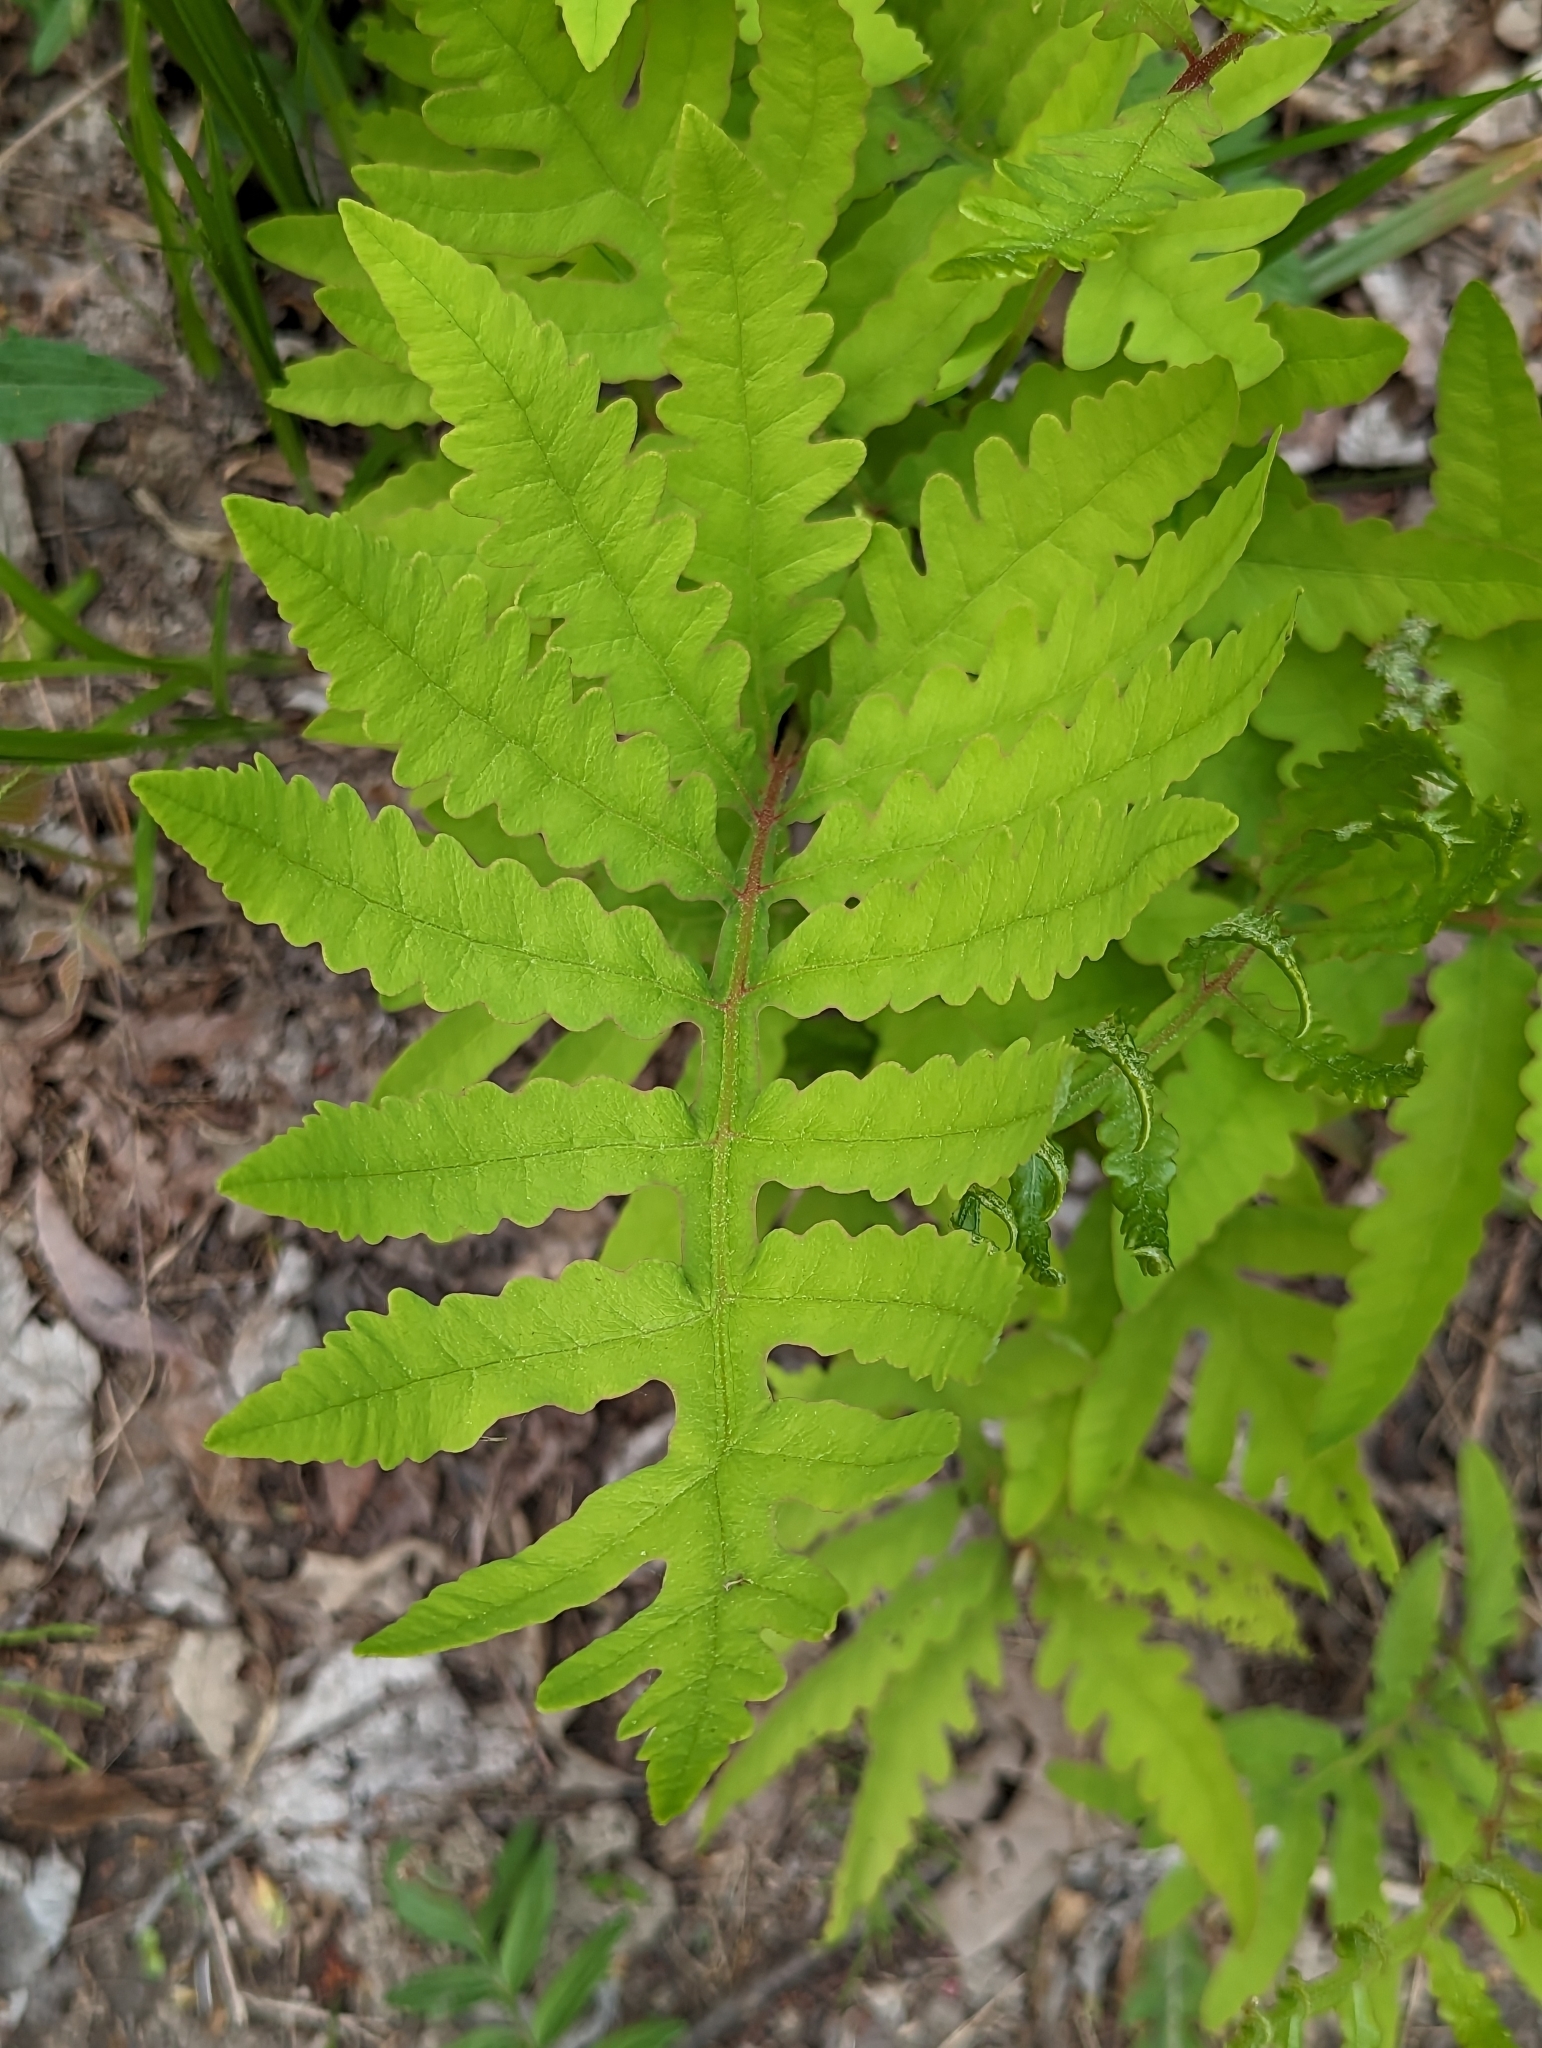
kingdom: Plantae
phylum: Tracheophyta
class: Polypodiopsida
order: Polypodiales
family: Onocleaceae
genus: Onoclea
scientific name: Onoclea sensibilis
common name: Sensitive fern
